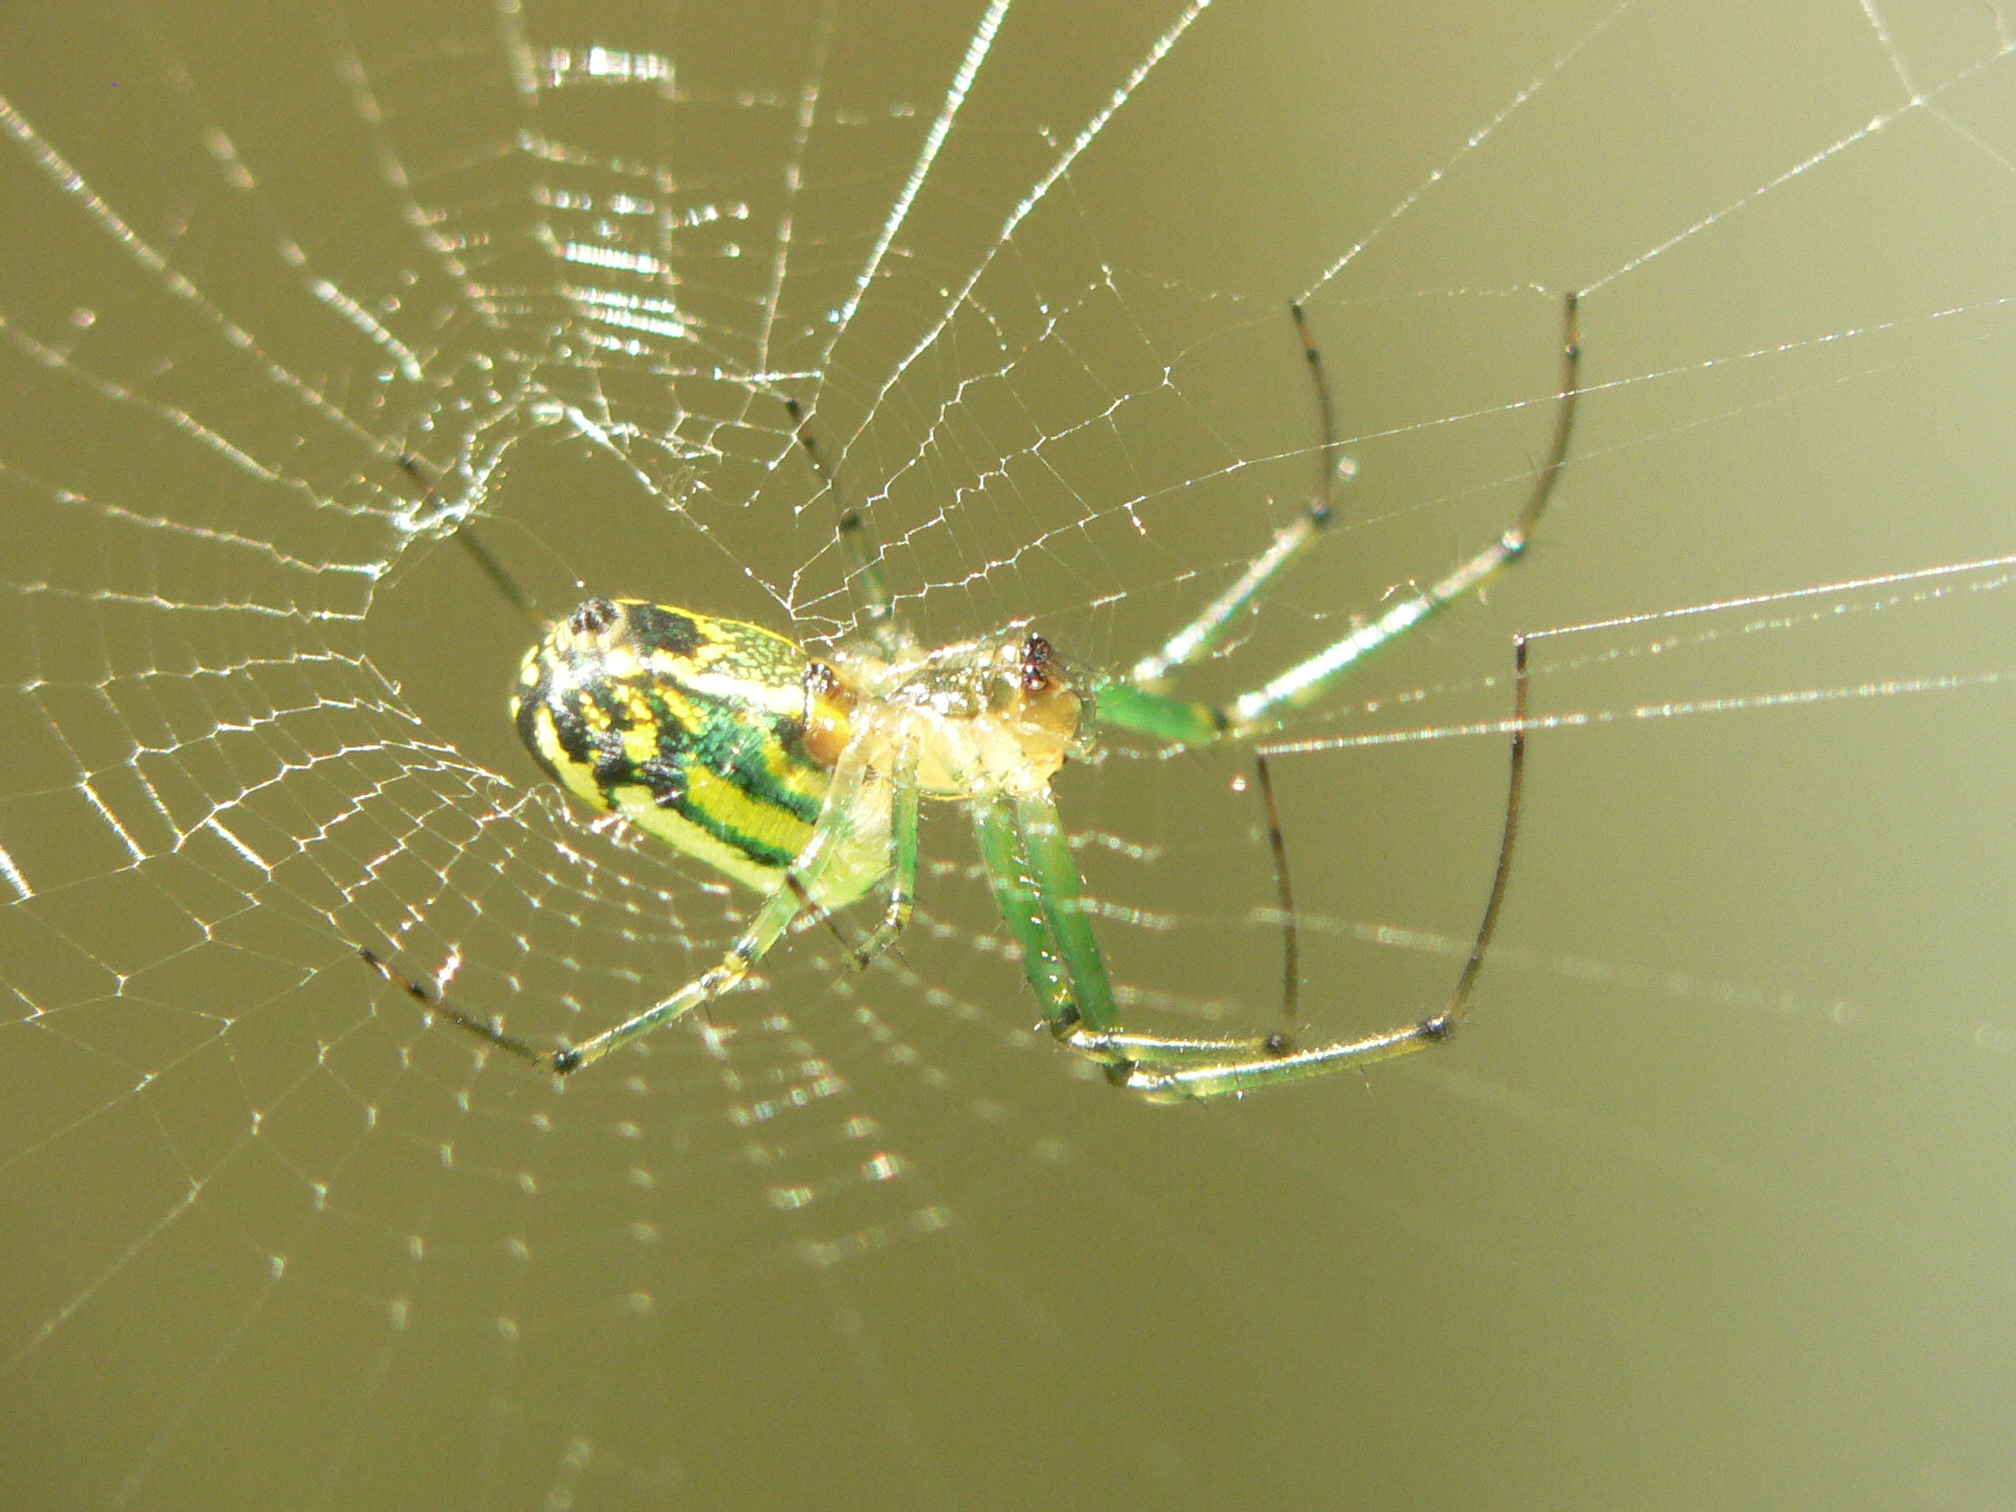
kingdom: Animalia
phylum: Arthropoda
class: Arachnida
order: Araneae
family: Tetragnathidae
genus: Leucauge
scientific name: Leucauge venusta
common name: Longjawed orb weavers
